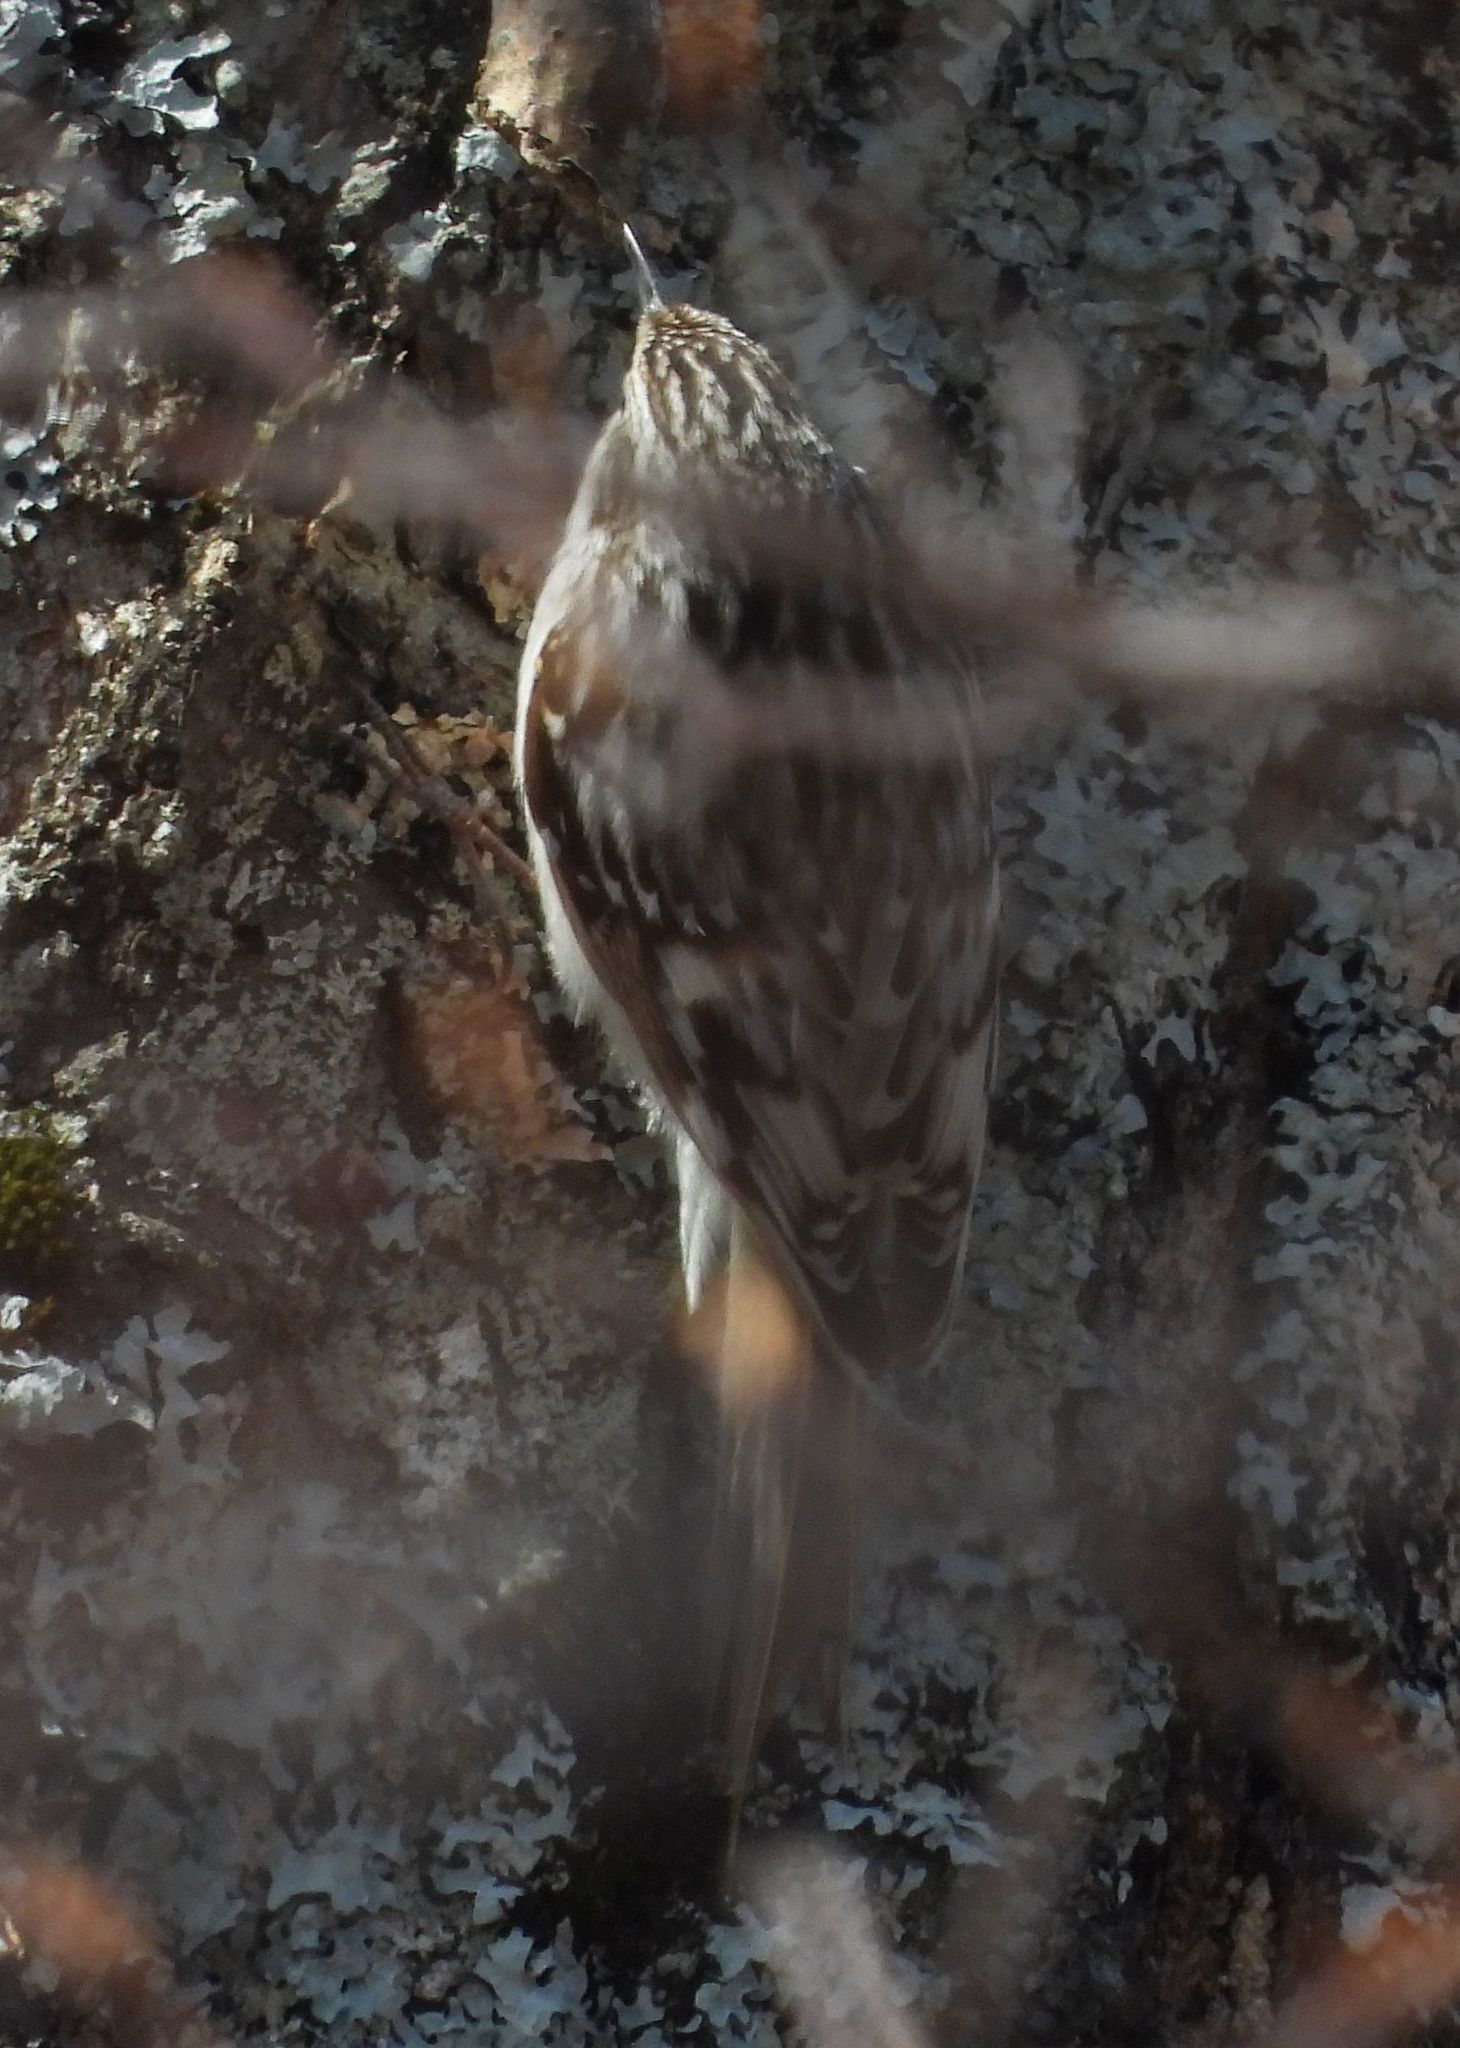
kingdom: Animalia
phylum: Chordata
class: Aves
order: Passeriformes
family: Certhiidae
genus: Certhia
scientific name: Certhia americana
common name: Brown creeper
